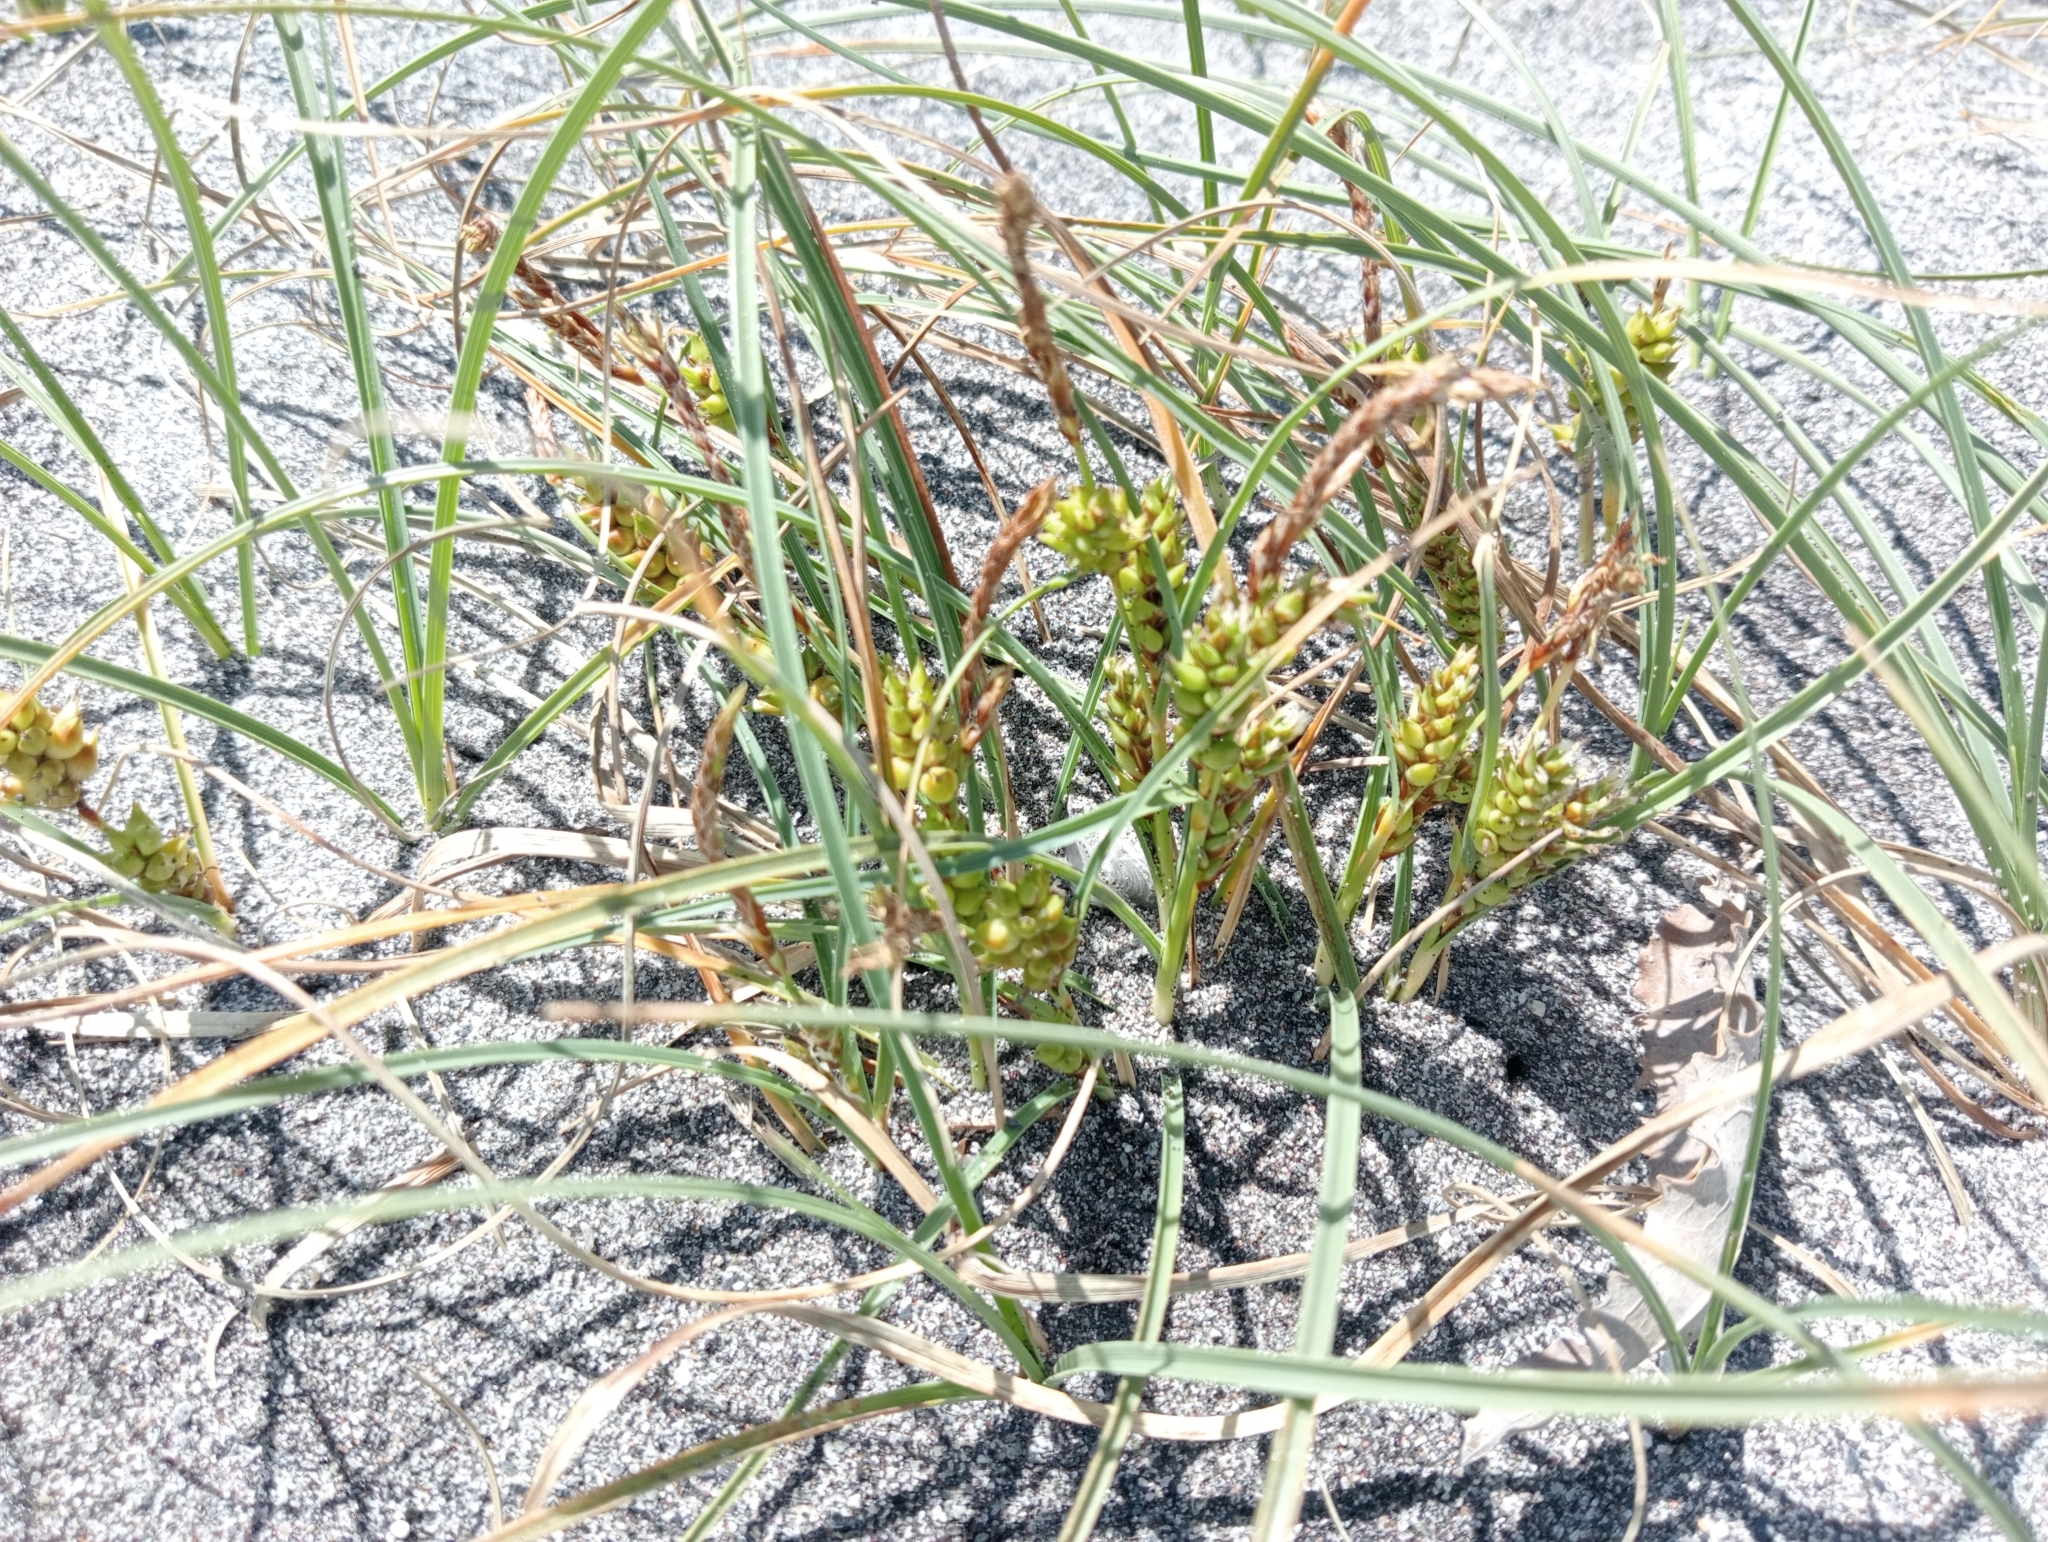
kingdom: Plantae
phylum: Tracheophyta
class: Liliopsida
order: Poales
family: Cyperaceae
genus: Carex
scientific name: Carex pumila
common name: Dwarf sedge
